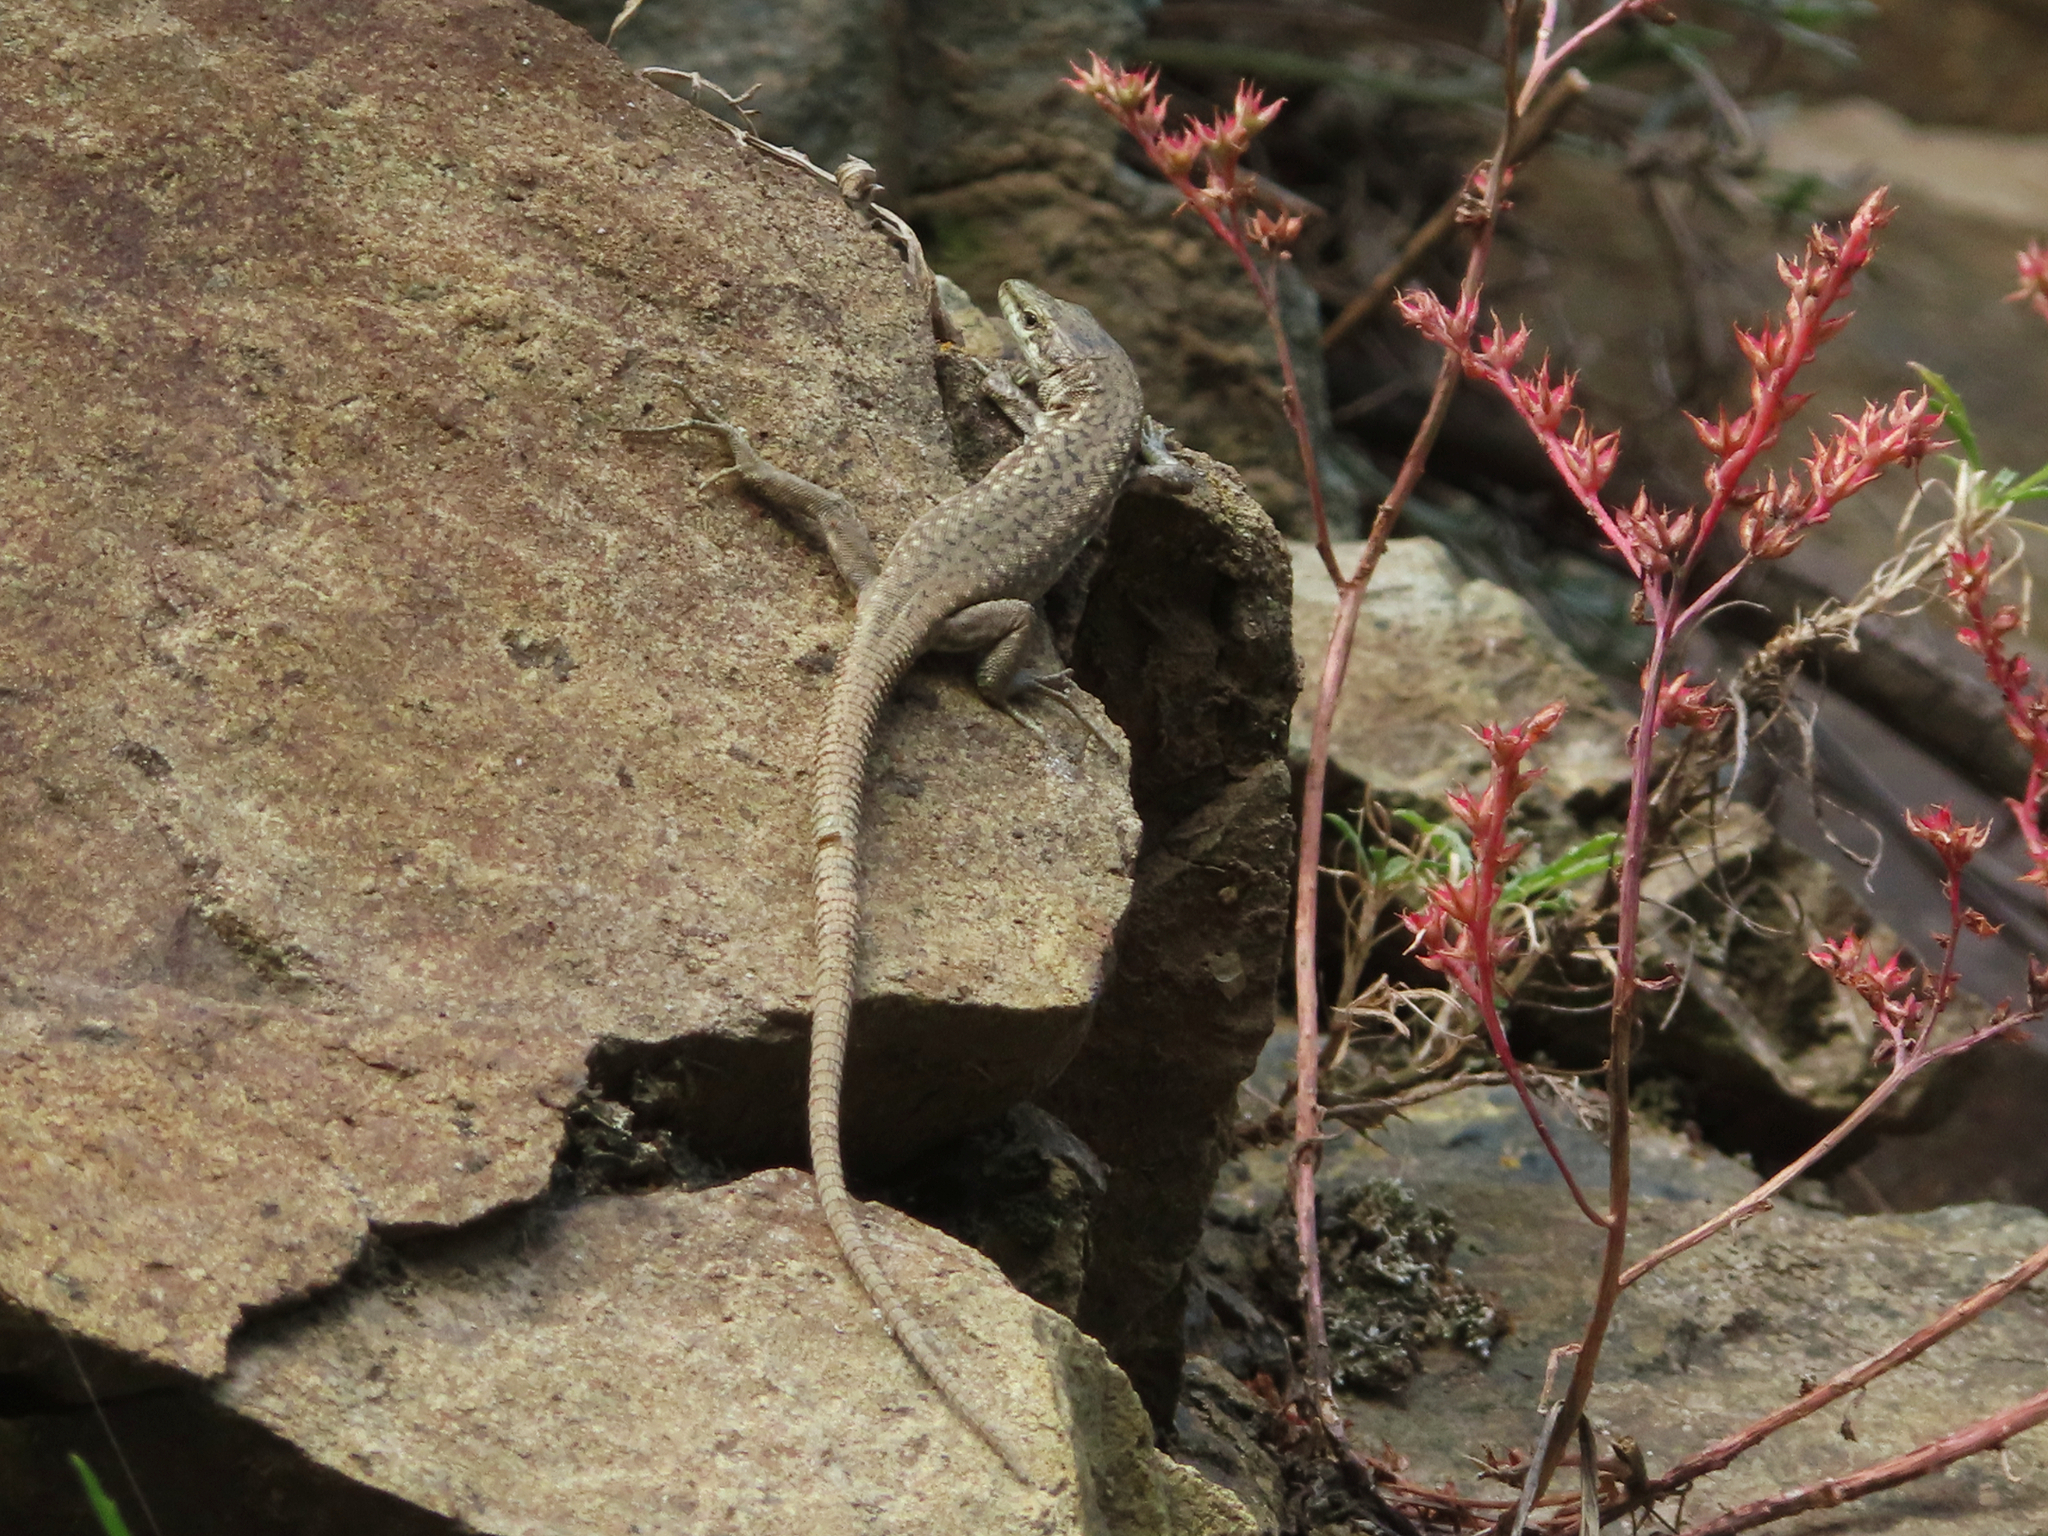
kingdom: Animalia
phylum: Chordata
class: Squamata
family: Lacertidae
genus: Darevskia
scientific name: Darevskia portschinskii
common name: River kura lizard
